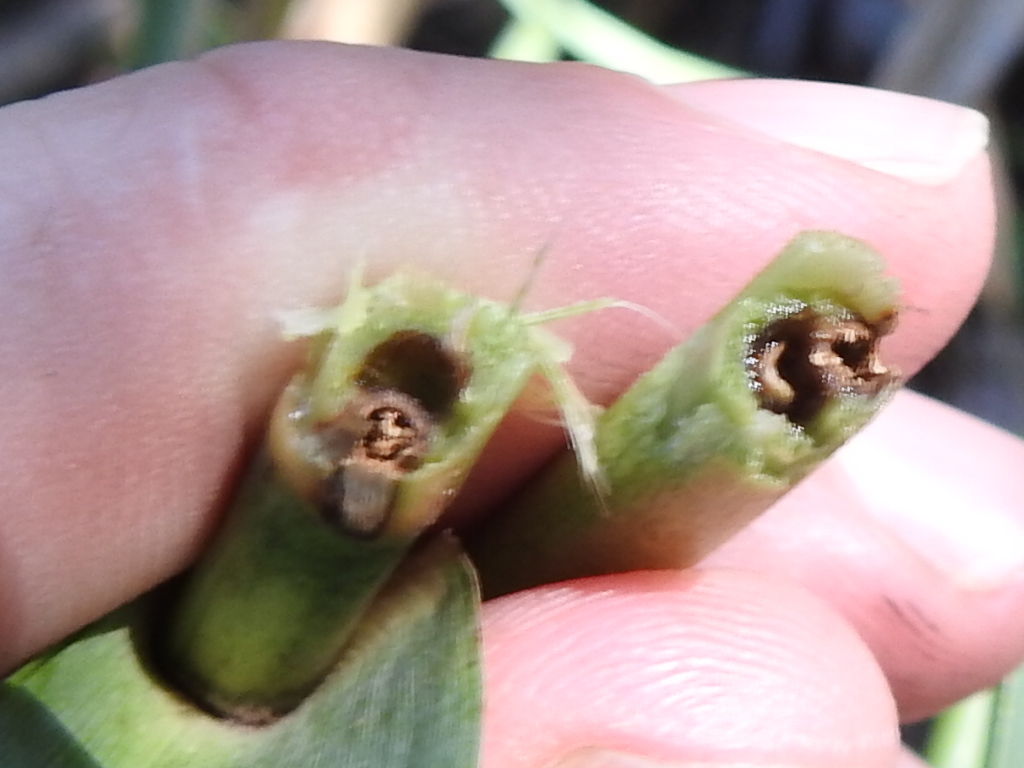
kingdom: Animalia
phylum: Arthropoda
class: Insecta
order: Hymenoptera
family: Eurytomidae
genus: Tetramesa
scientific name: Tetramesa romana
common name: Arundo gall wasp
